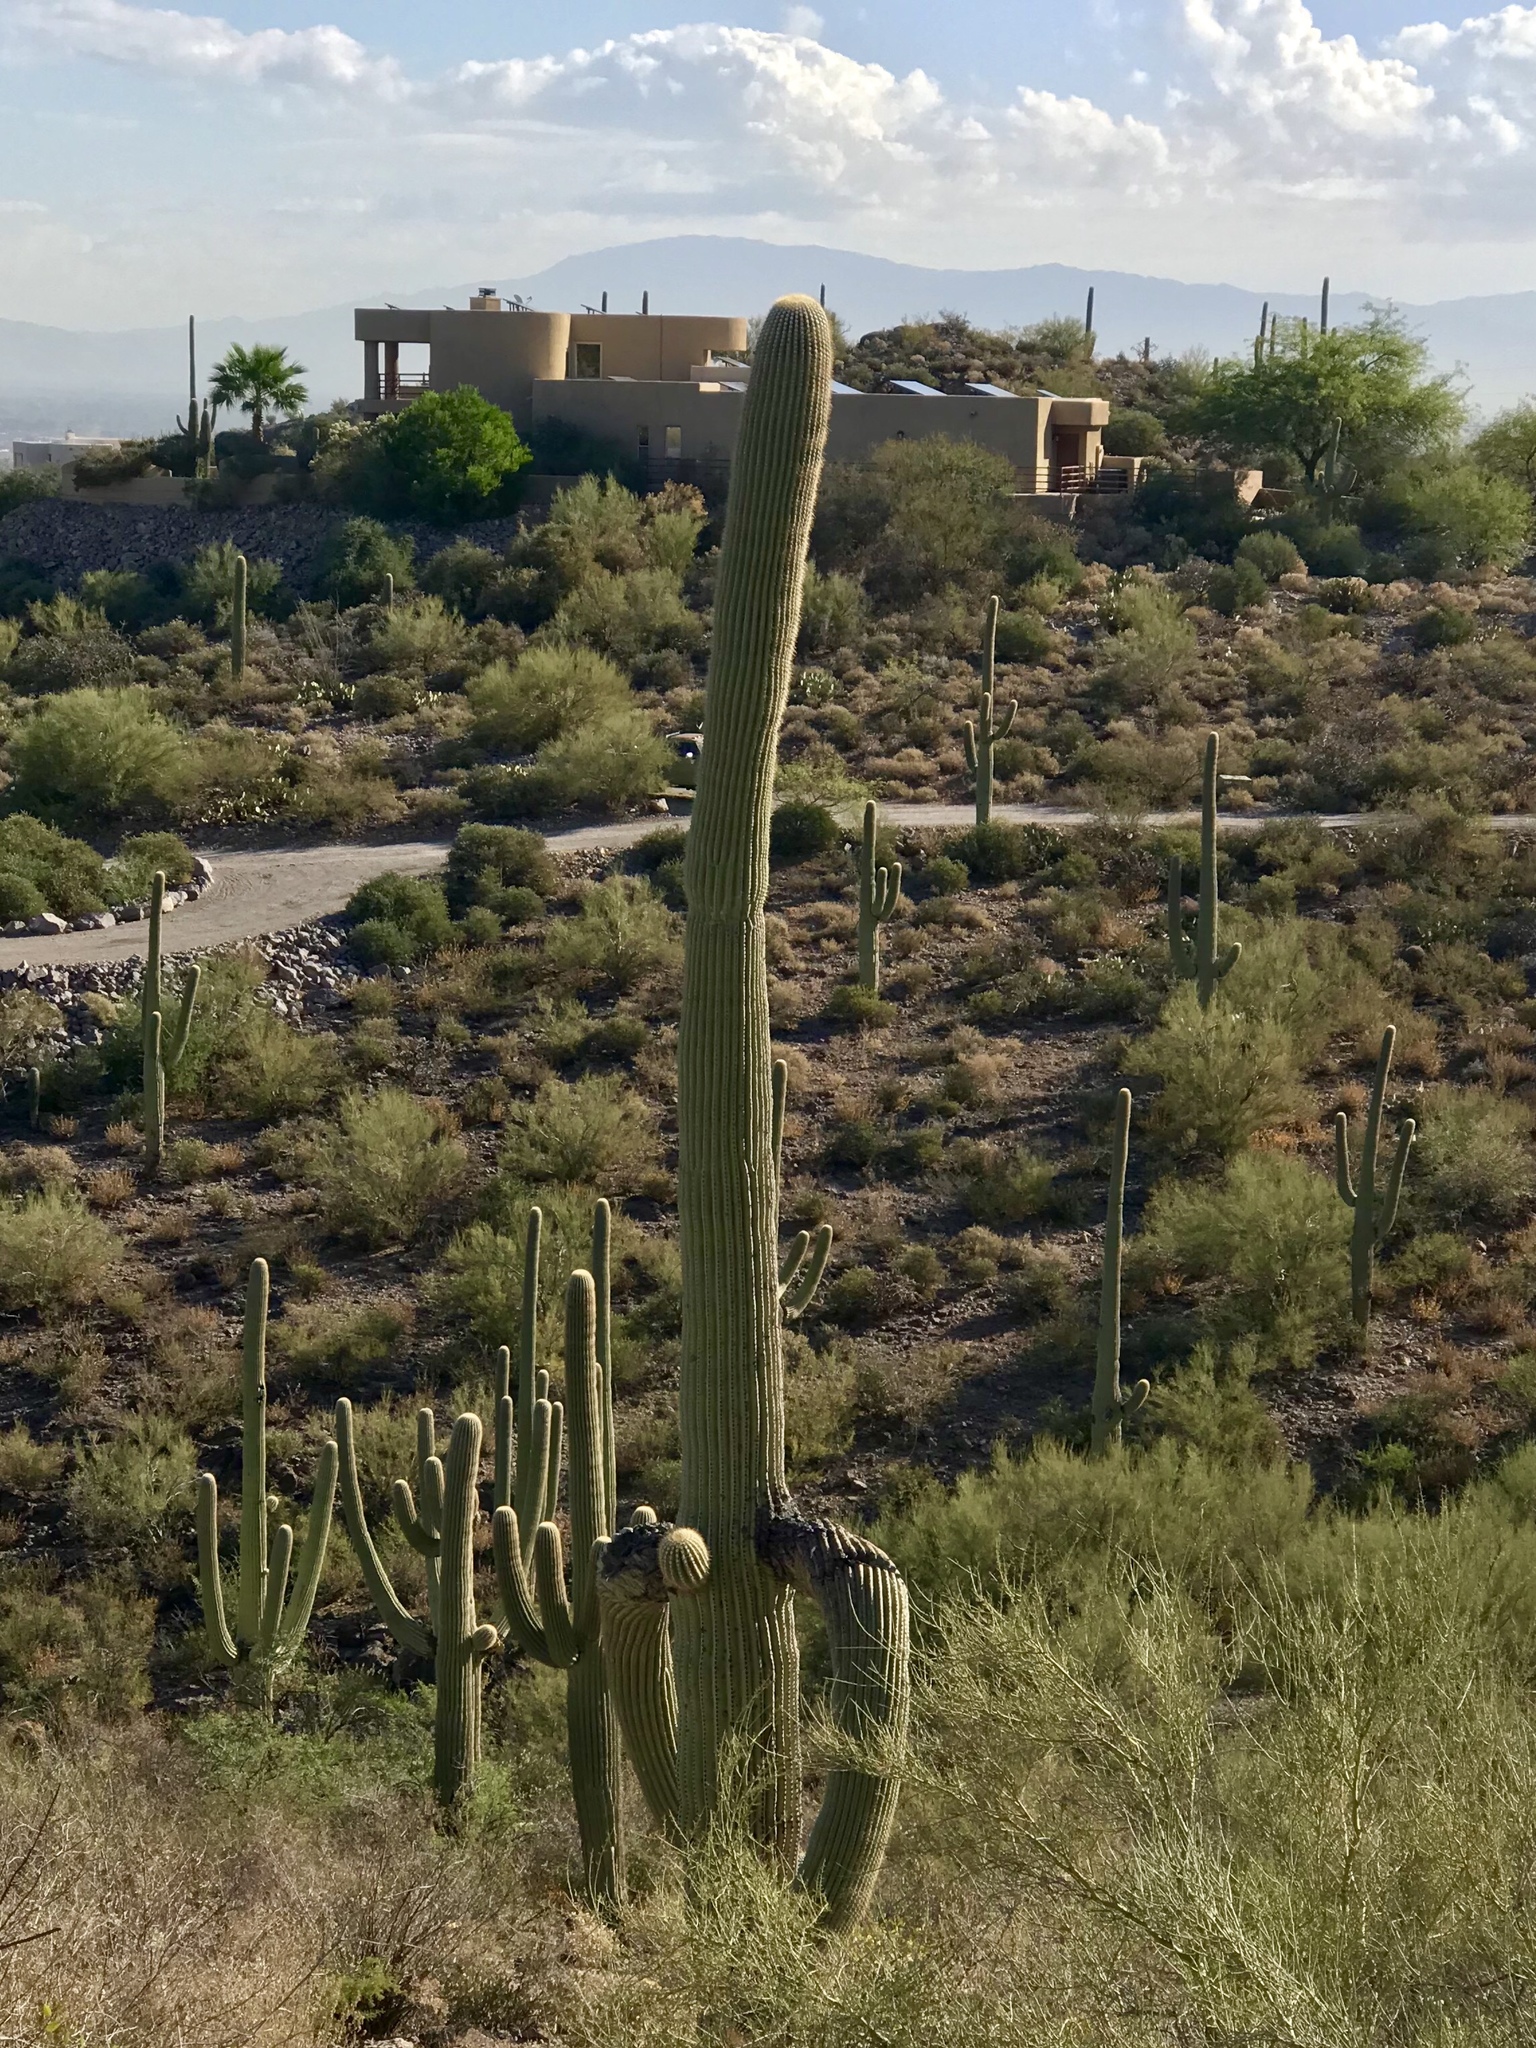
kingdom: Plantae
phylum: Tracheophyta
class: Magnoliopsida
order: Caryophyllales
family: Cactaceae
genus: Carnegiea
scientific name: Carnegiea gigantea
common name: Saguaro
